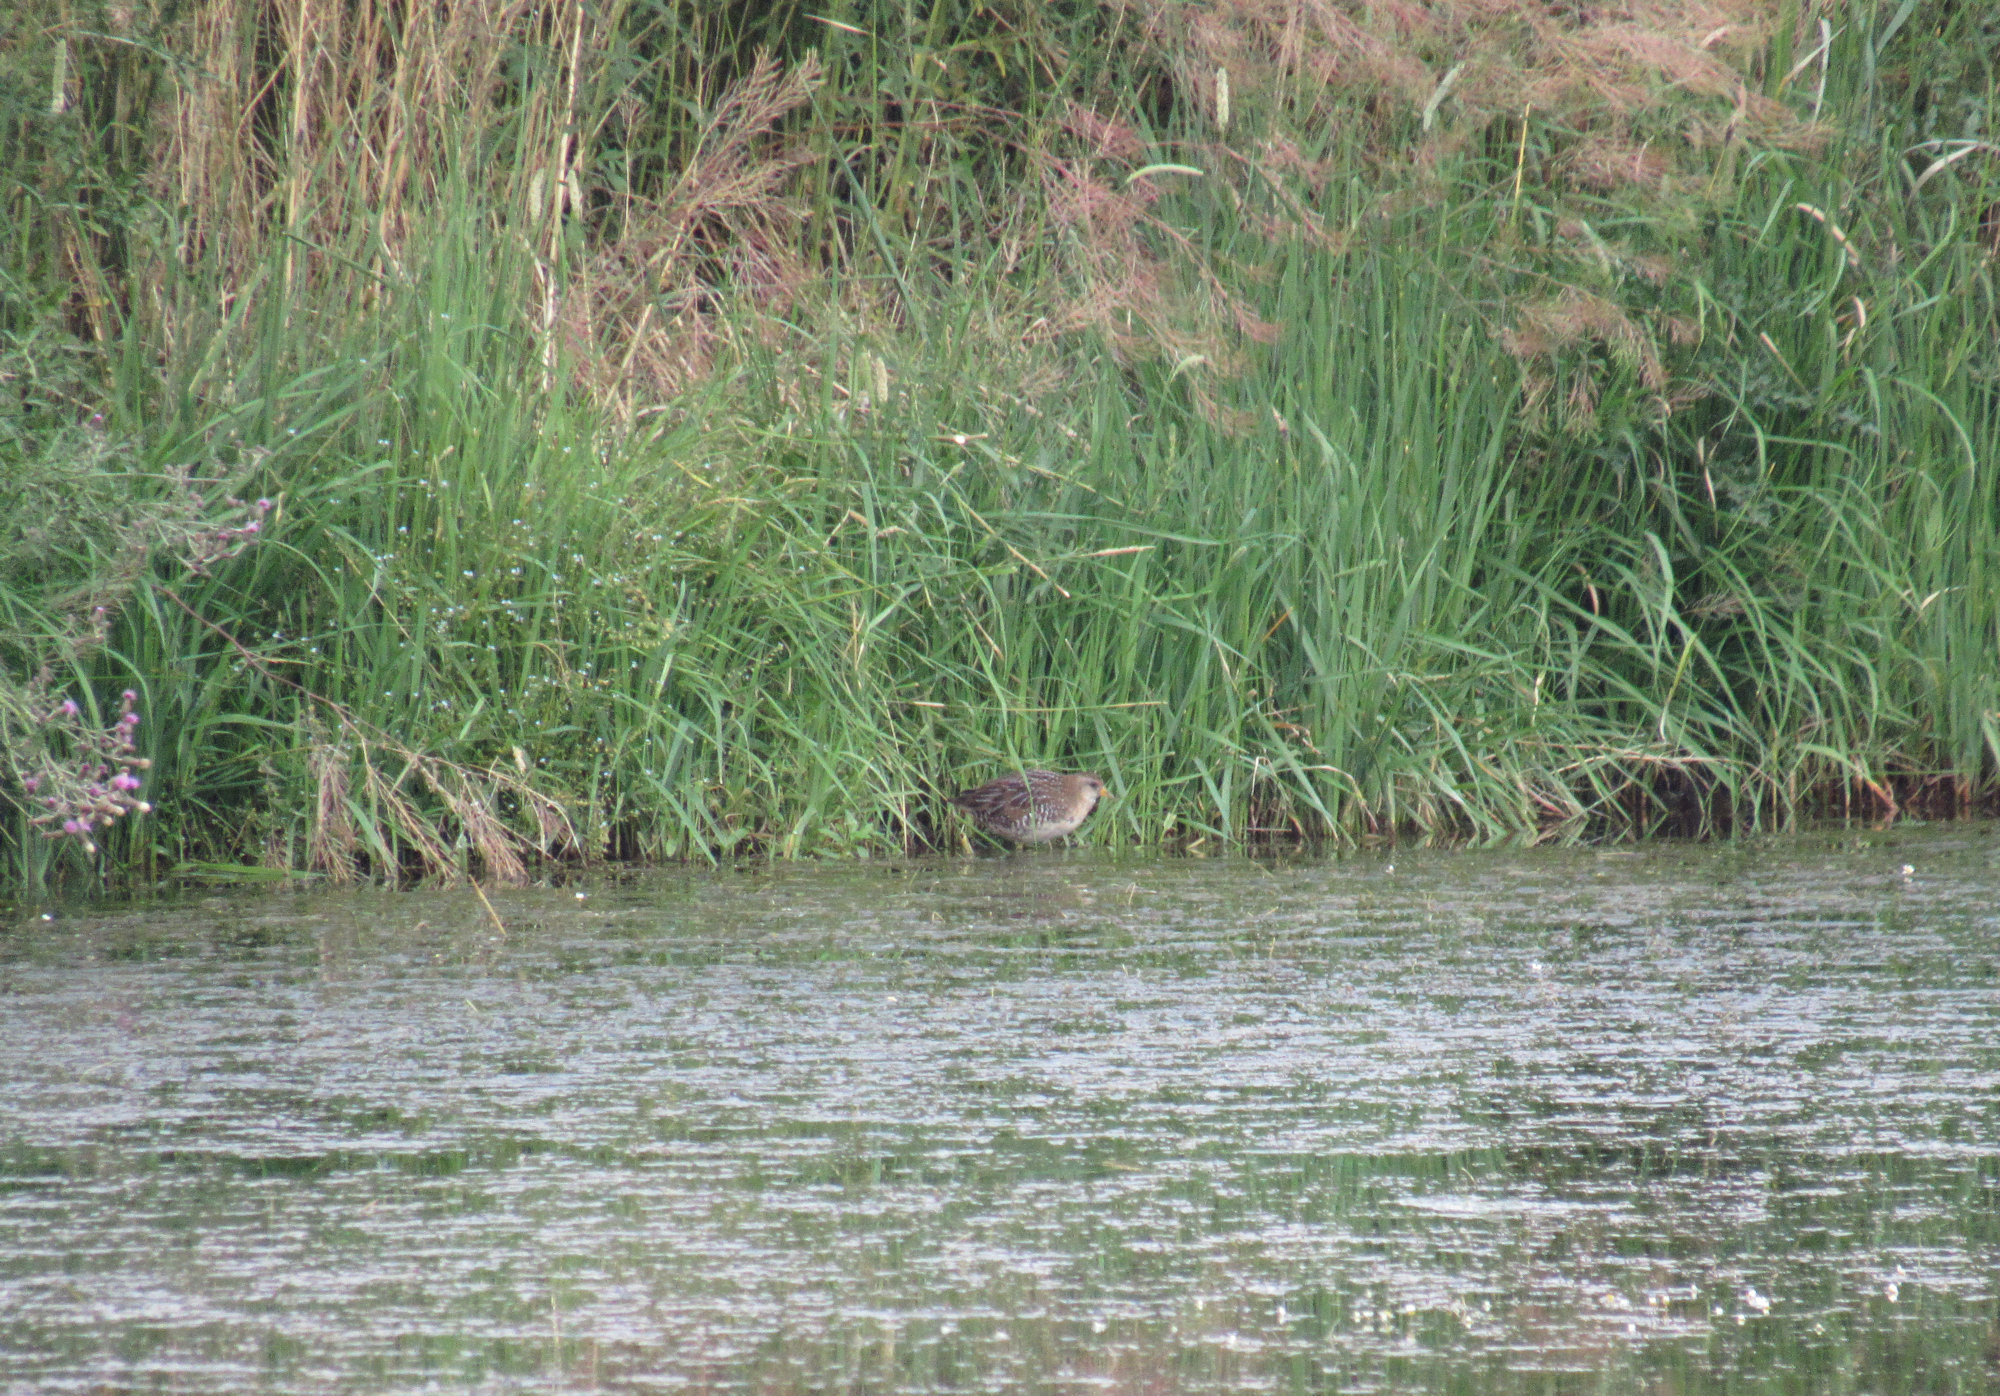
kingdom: Animalia
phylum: Chordata
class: Aves
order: Gruiformes
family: Rallidae
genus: Porzana
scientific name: Porzana carolina
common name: Sora
